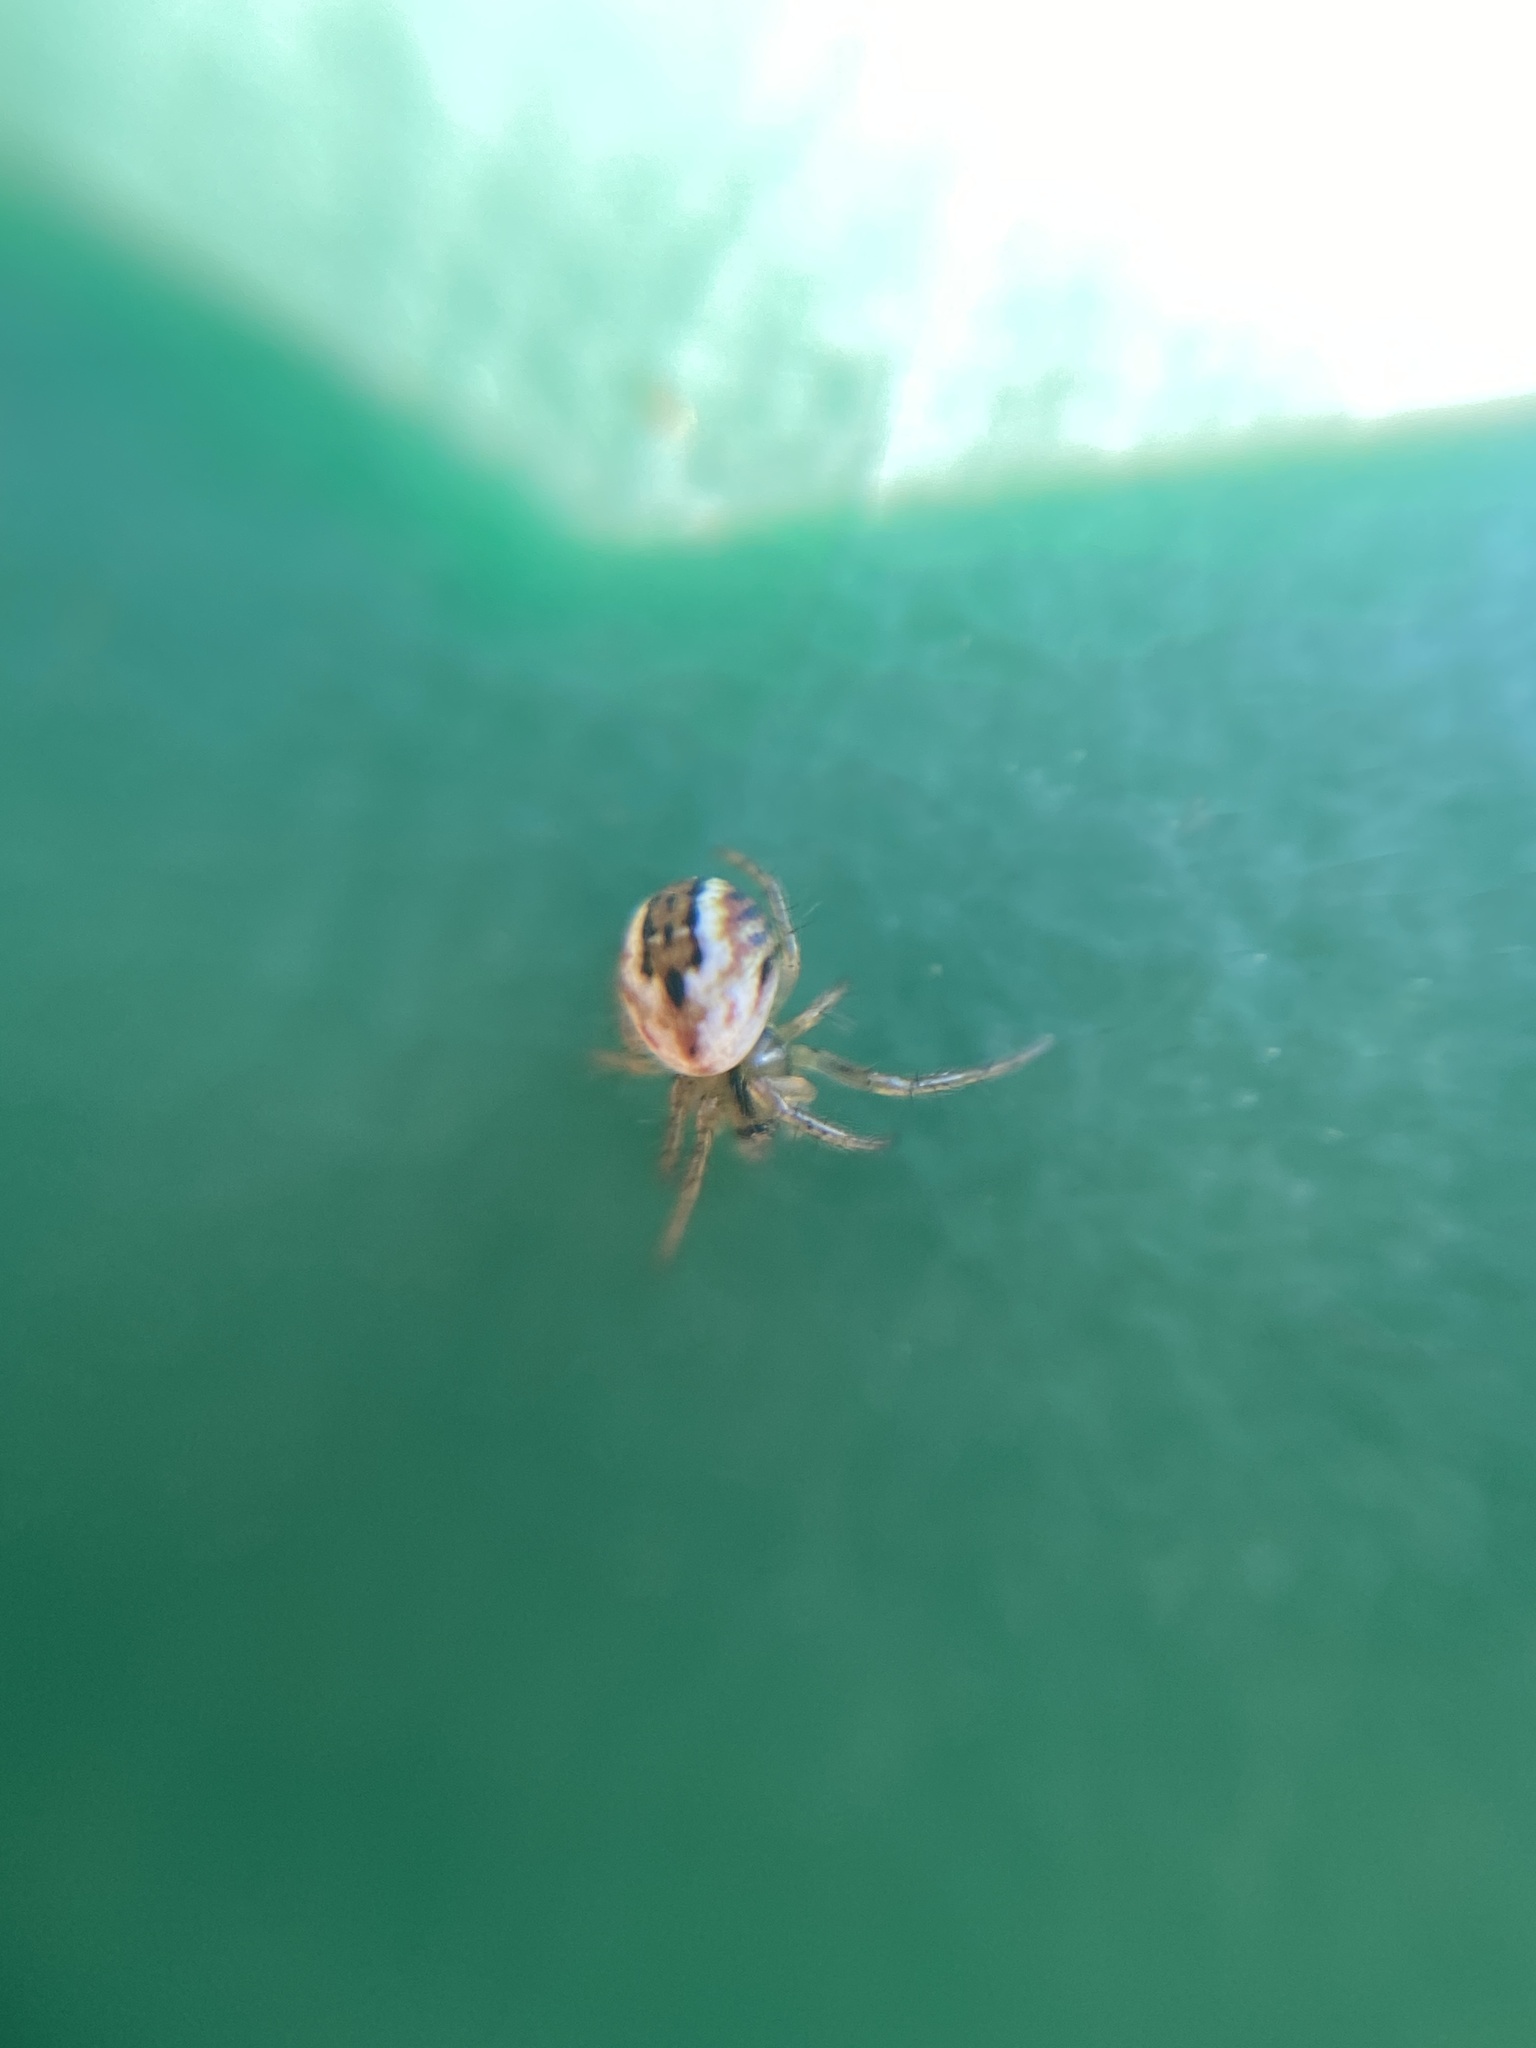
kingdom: Animalia
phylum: Arthropoda
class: Arachnida
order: Araneae
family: Araneidae
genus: Mangora
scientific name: Mangora acalypha
